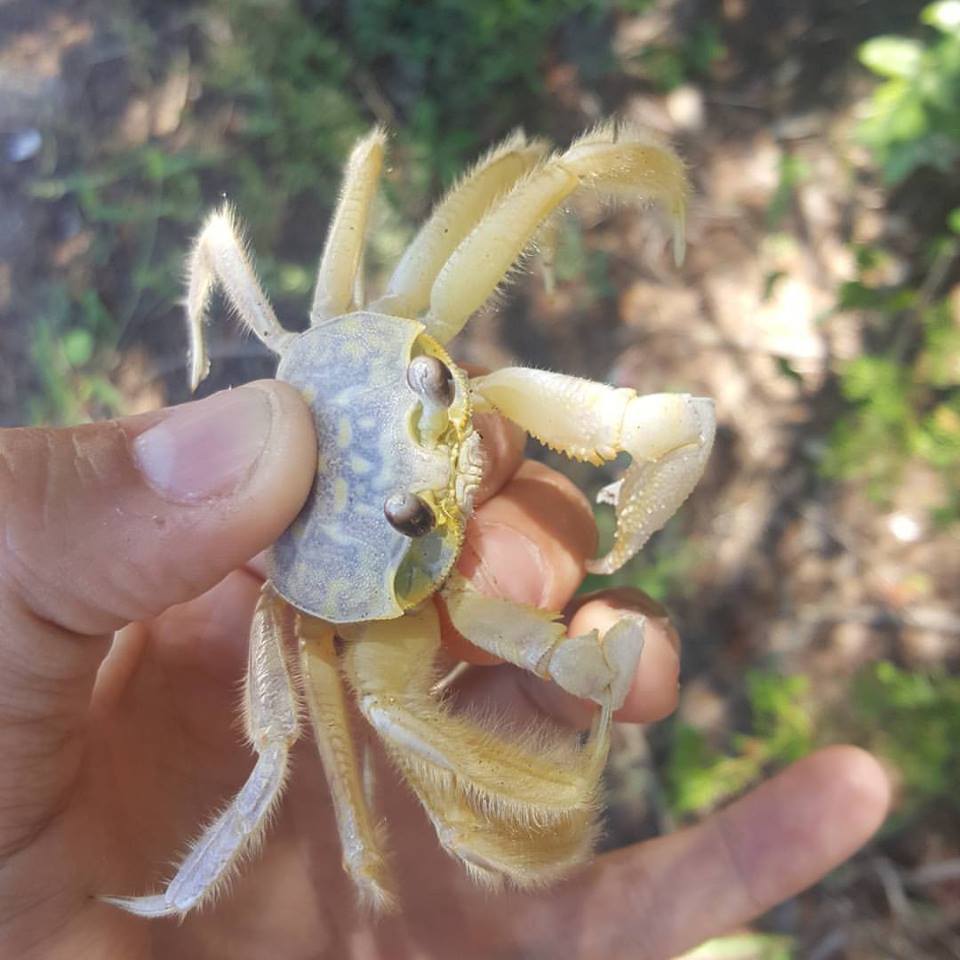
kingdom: Animalia
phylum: Arthropoda
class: Malacostraca
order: Decapoda
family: Ocypodidae
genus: Ocypode
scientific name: Ocypode quadrata
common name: Ghost crab
